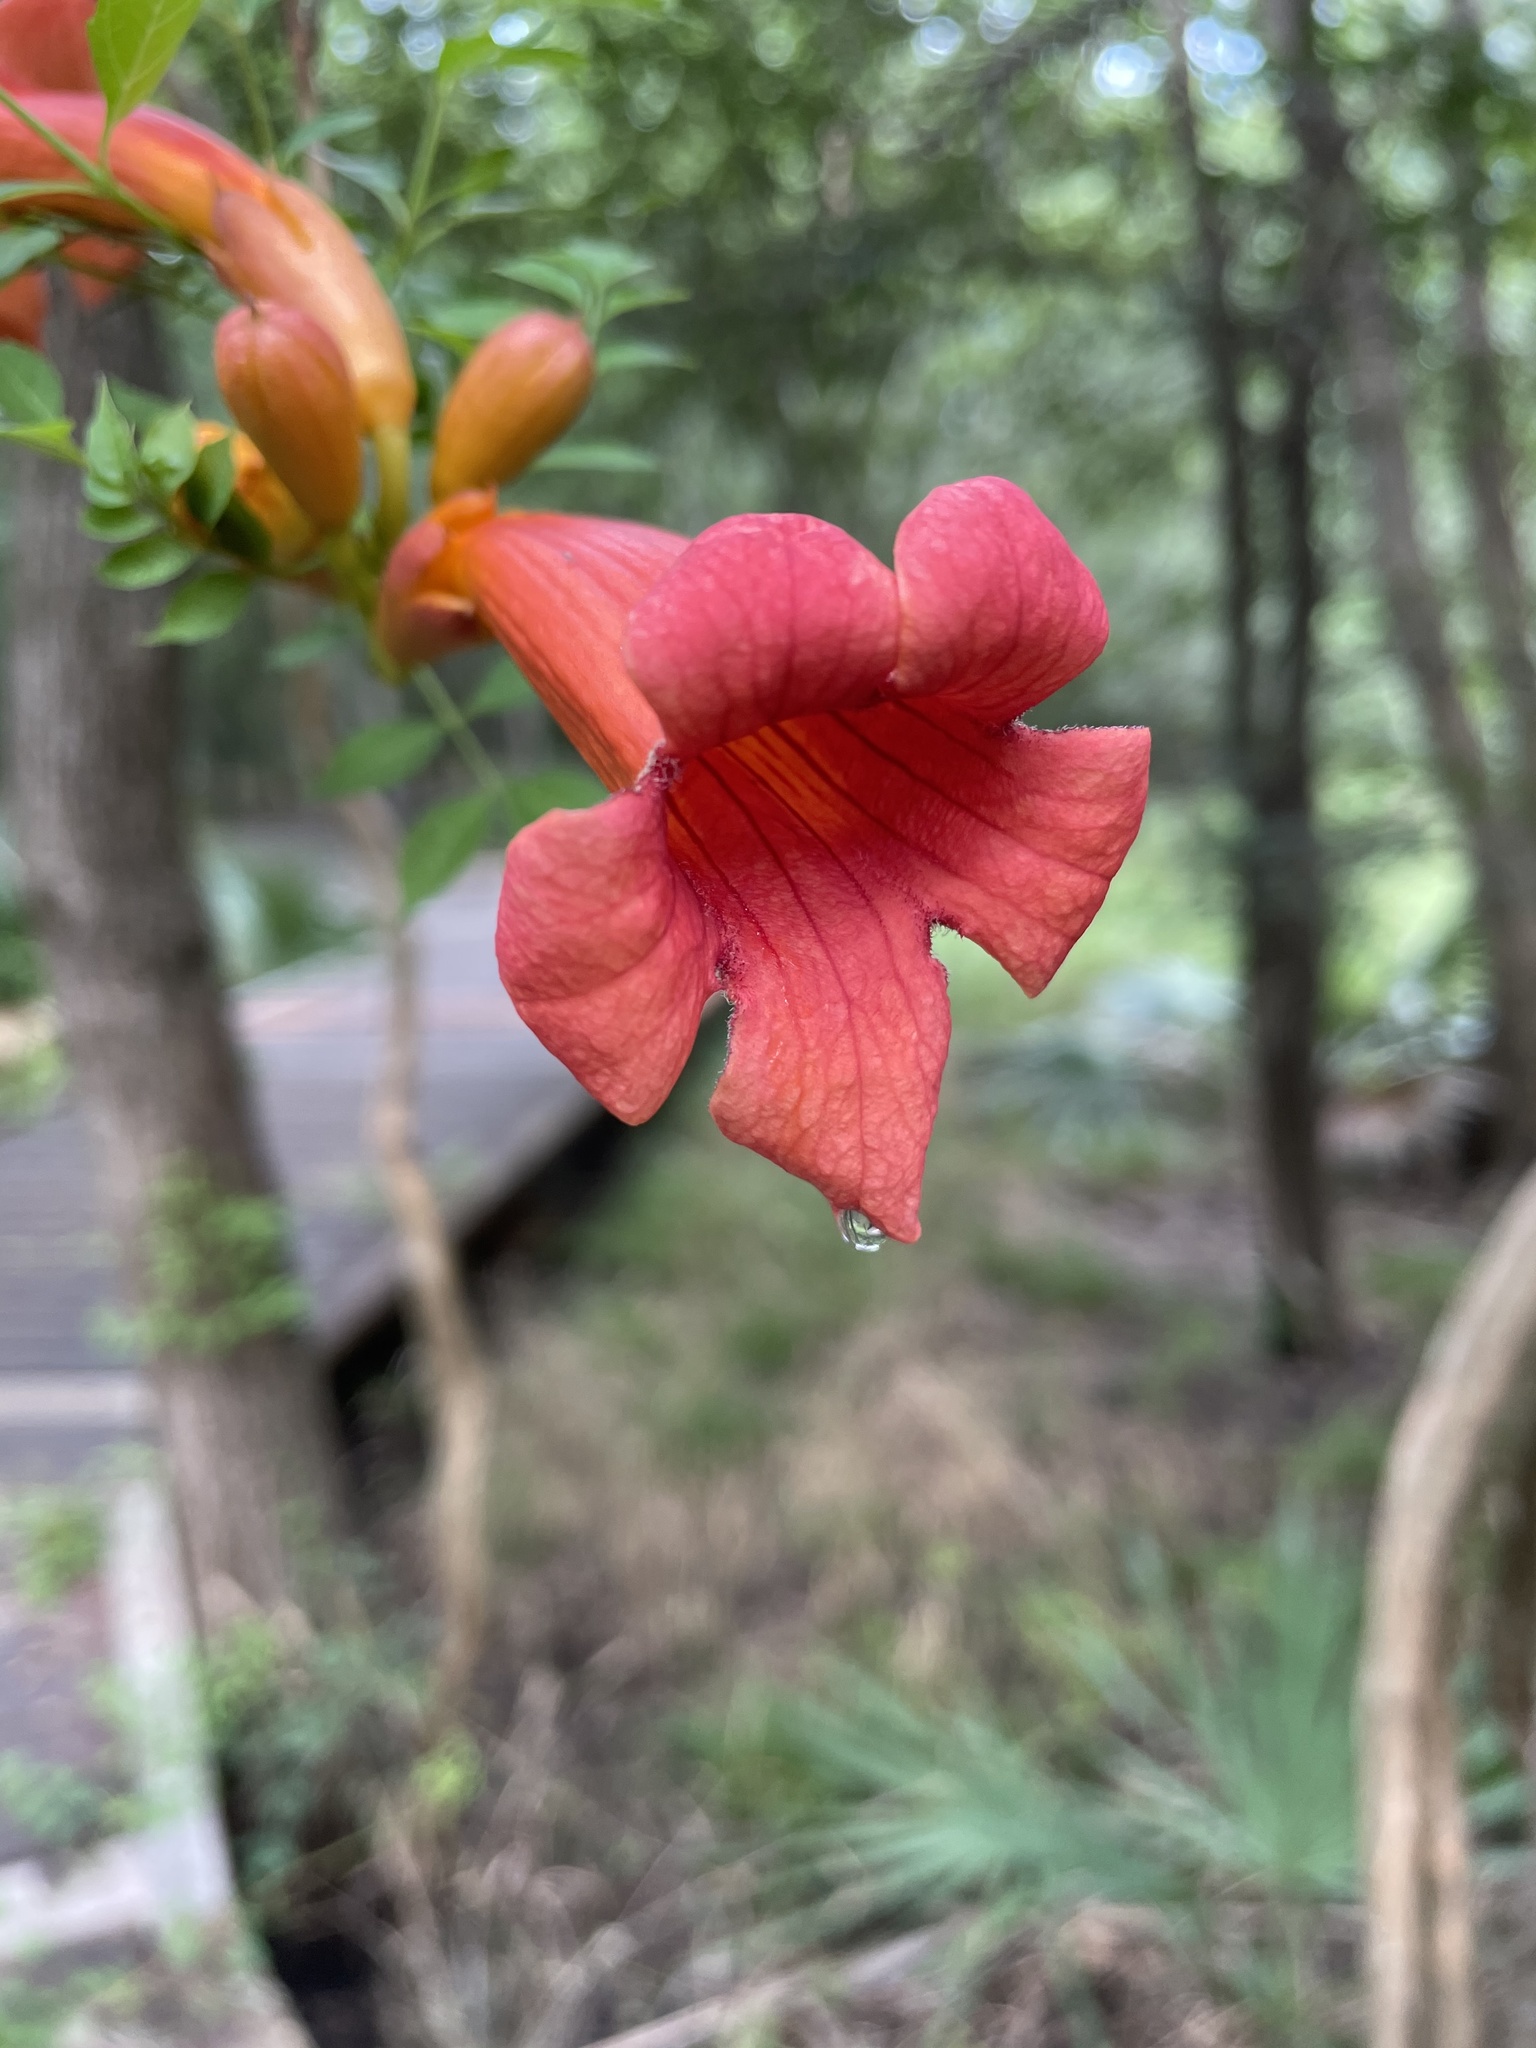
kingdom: Plantae
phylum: Tracheophyta
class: Magnoliopsida
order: Lamiales
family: Bignoniaceae
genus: Campsis
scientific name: Campsis radicans
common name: Trumpet-creeper
